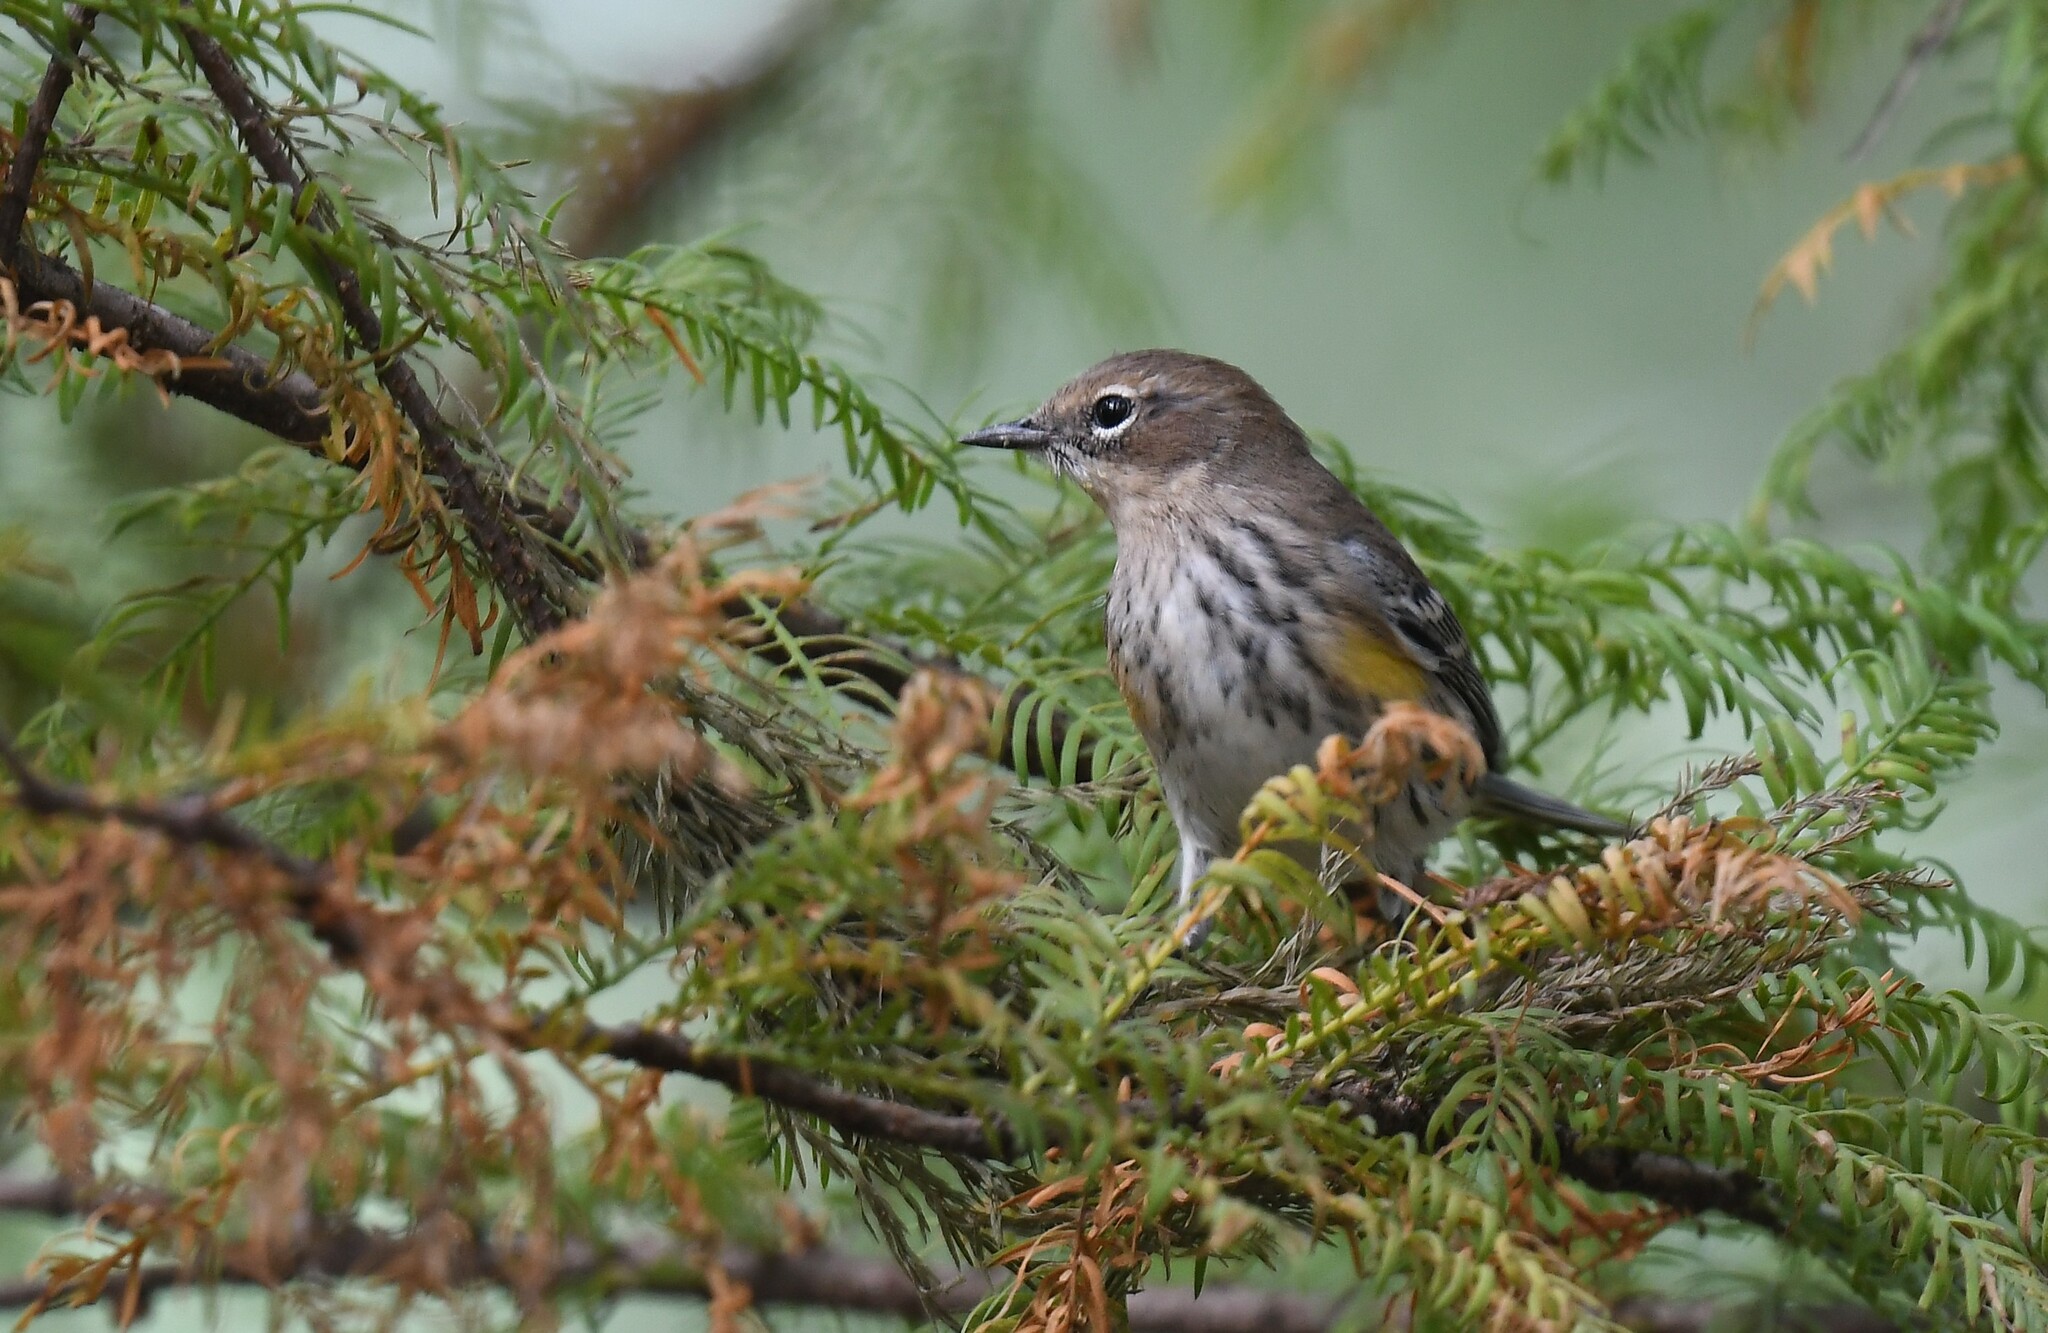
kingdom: Animalia
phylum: Chordata
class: Aves
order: Passeriformes
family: Parulidae
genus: Setophaga
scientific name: Setophaga coronata
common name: Myrtle warbler
